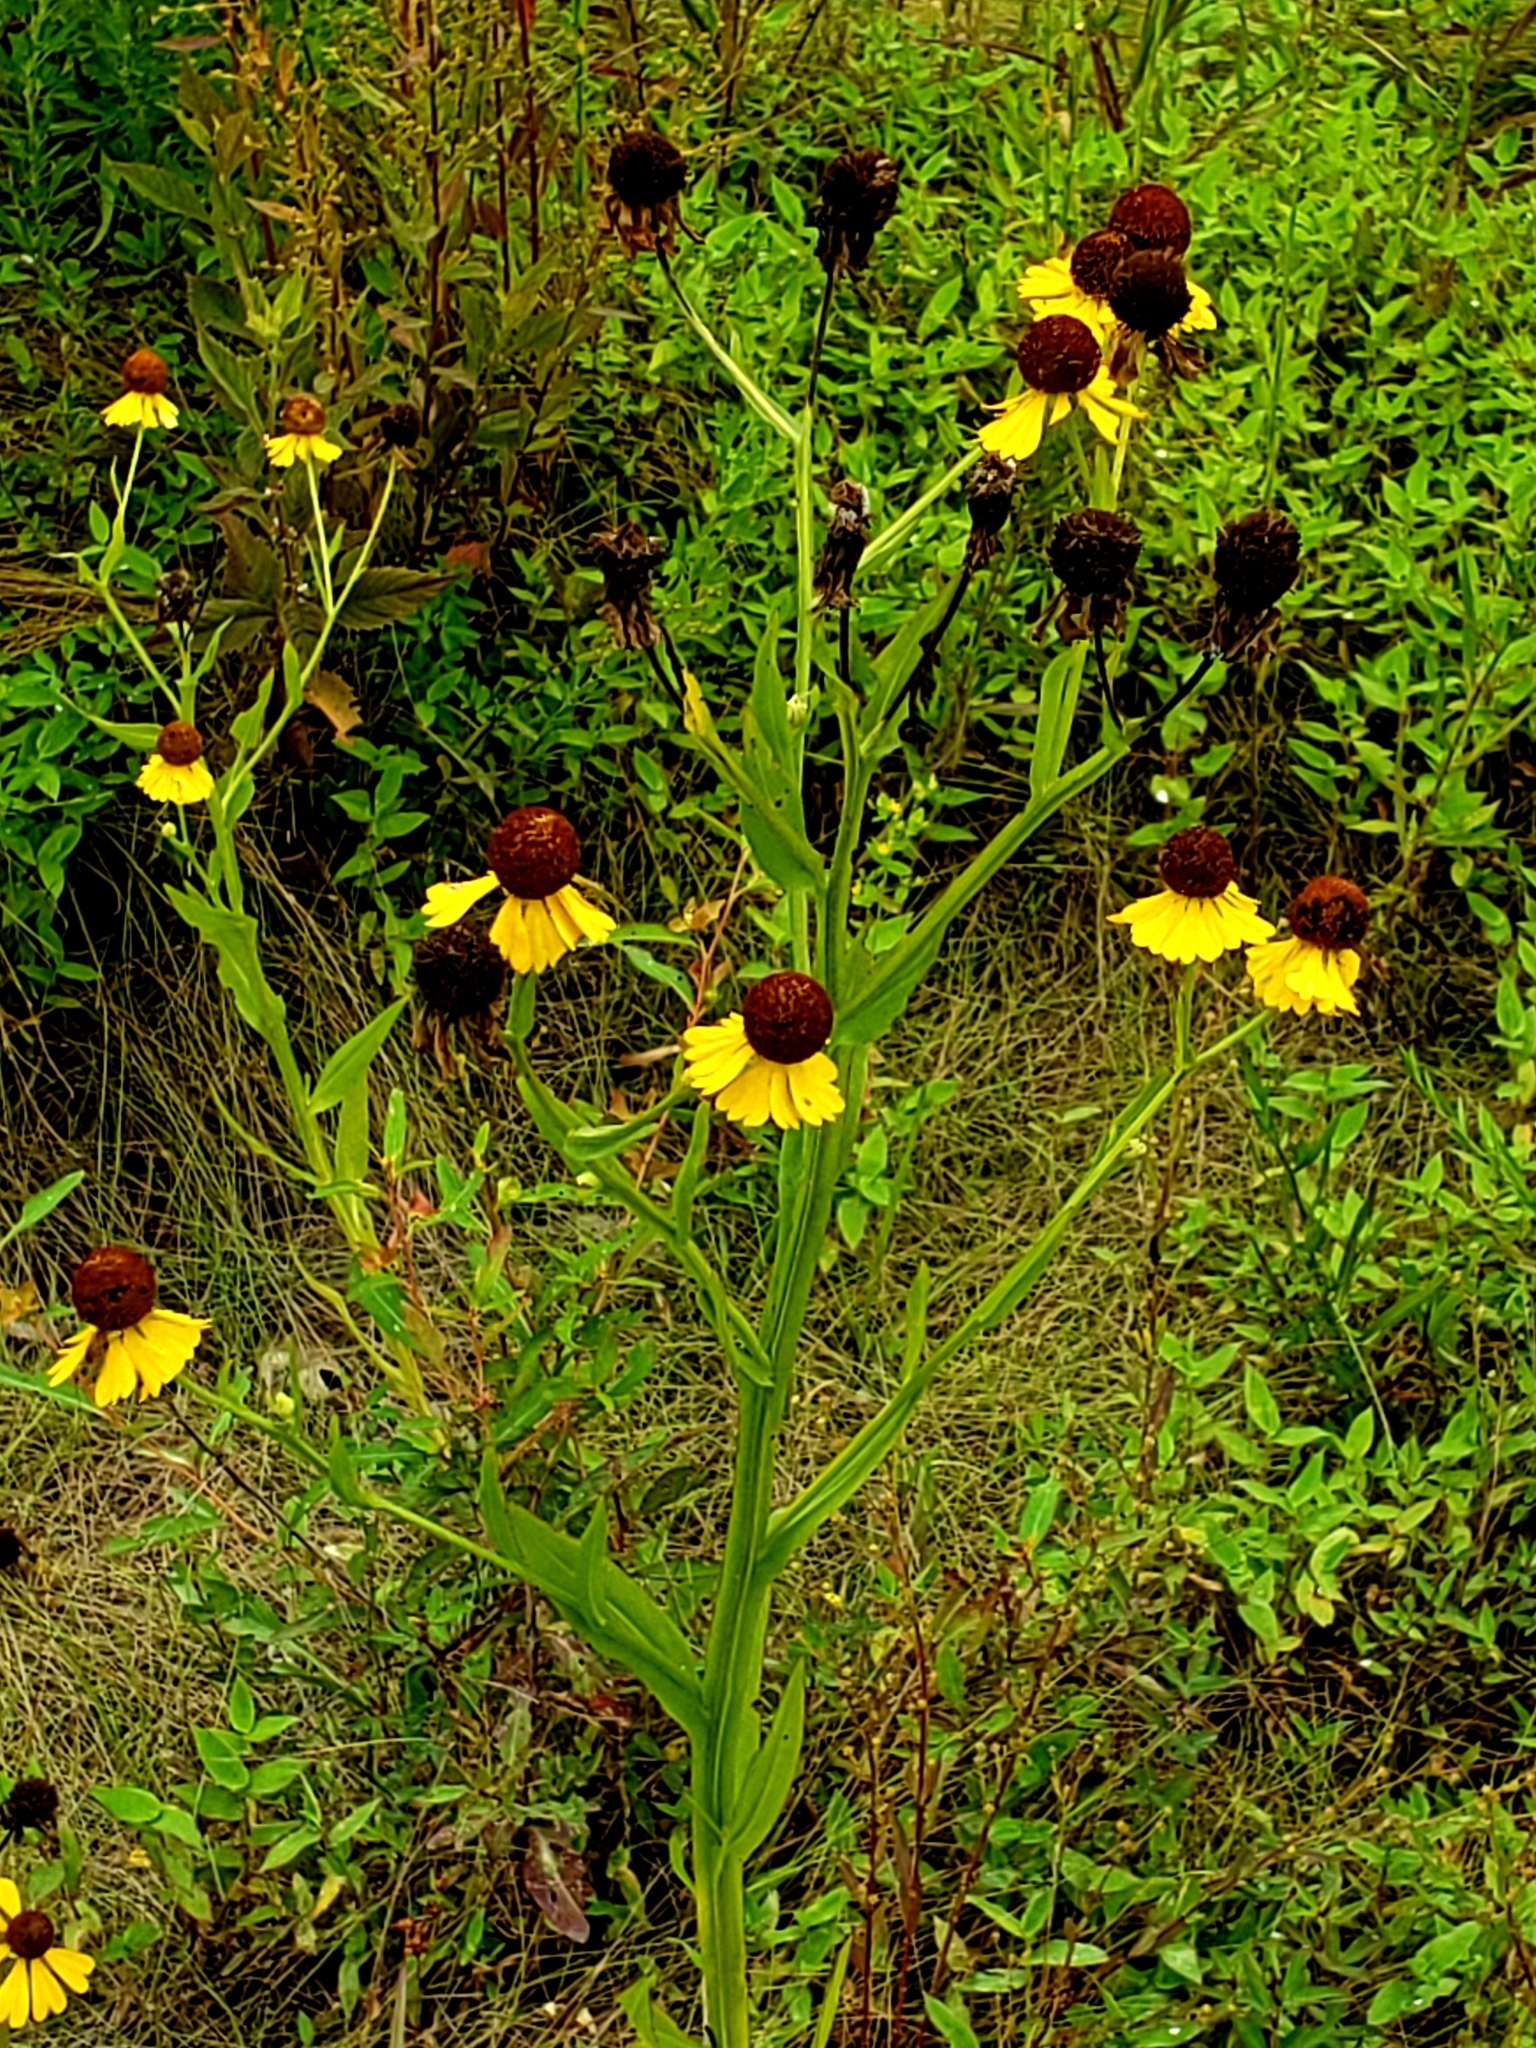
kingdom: Plantae
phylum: Tracheophyta
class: Magnoliopsida
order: Asterales
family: Asteraceae
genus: Helenium
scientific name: Helenium flexuosum
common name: Naked-flowered sneezeweed
